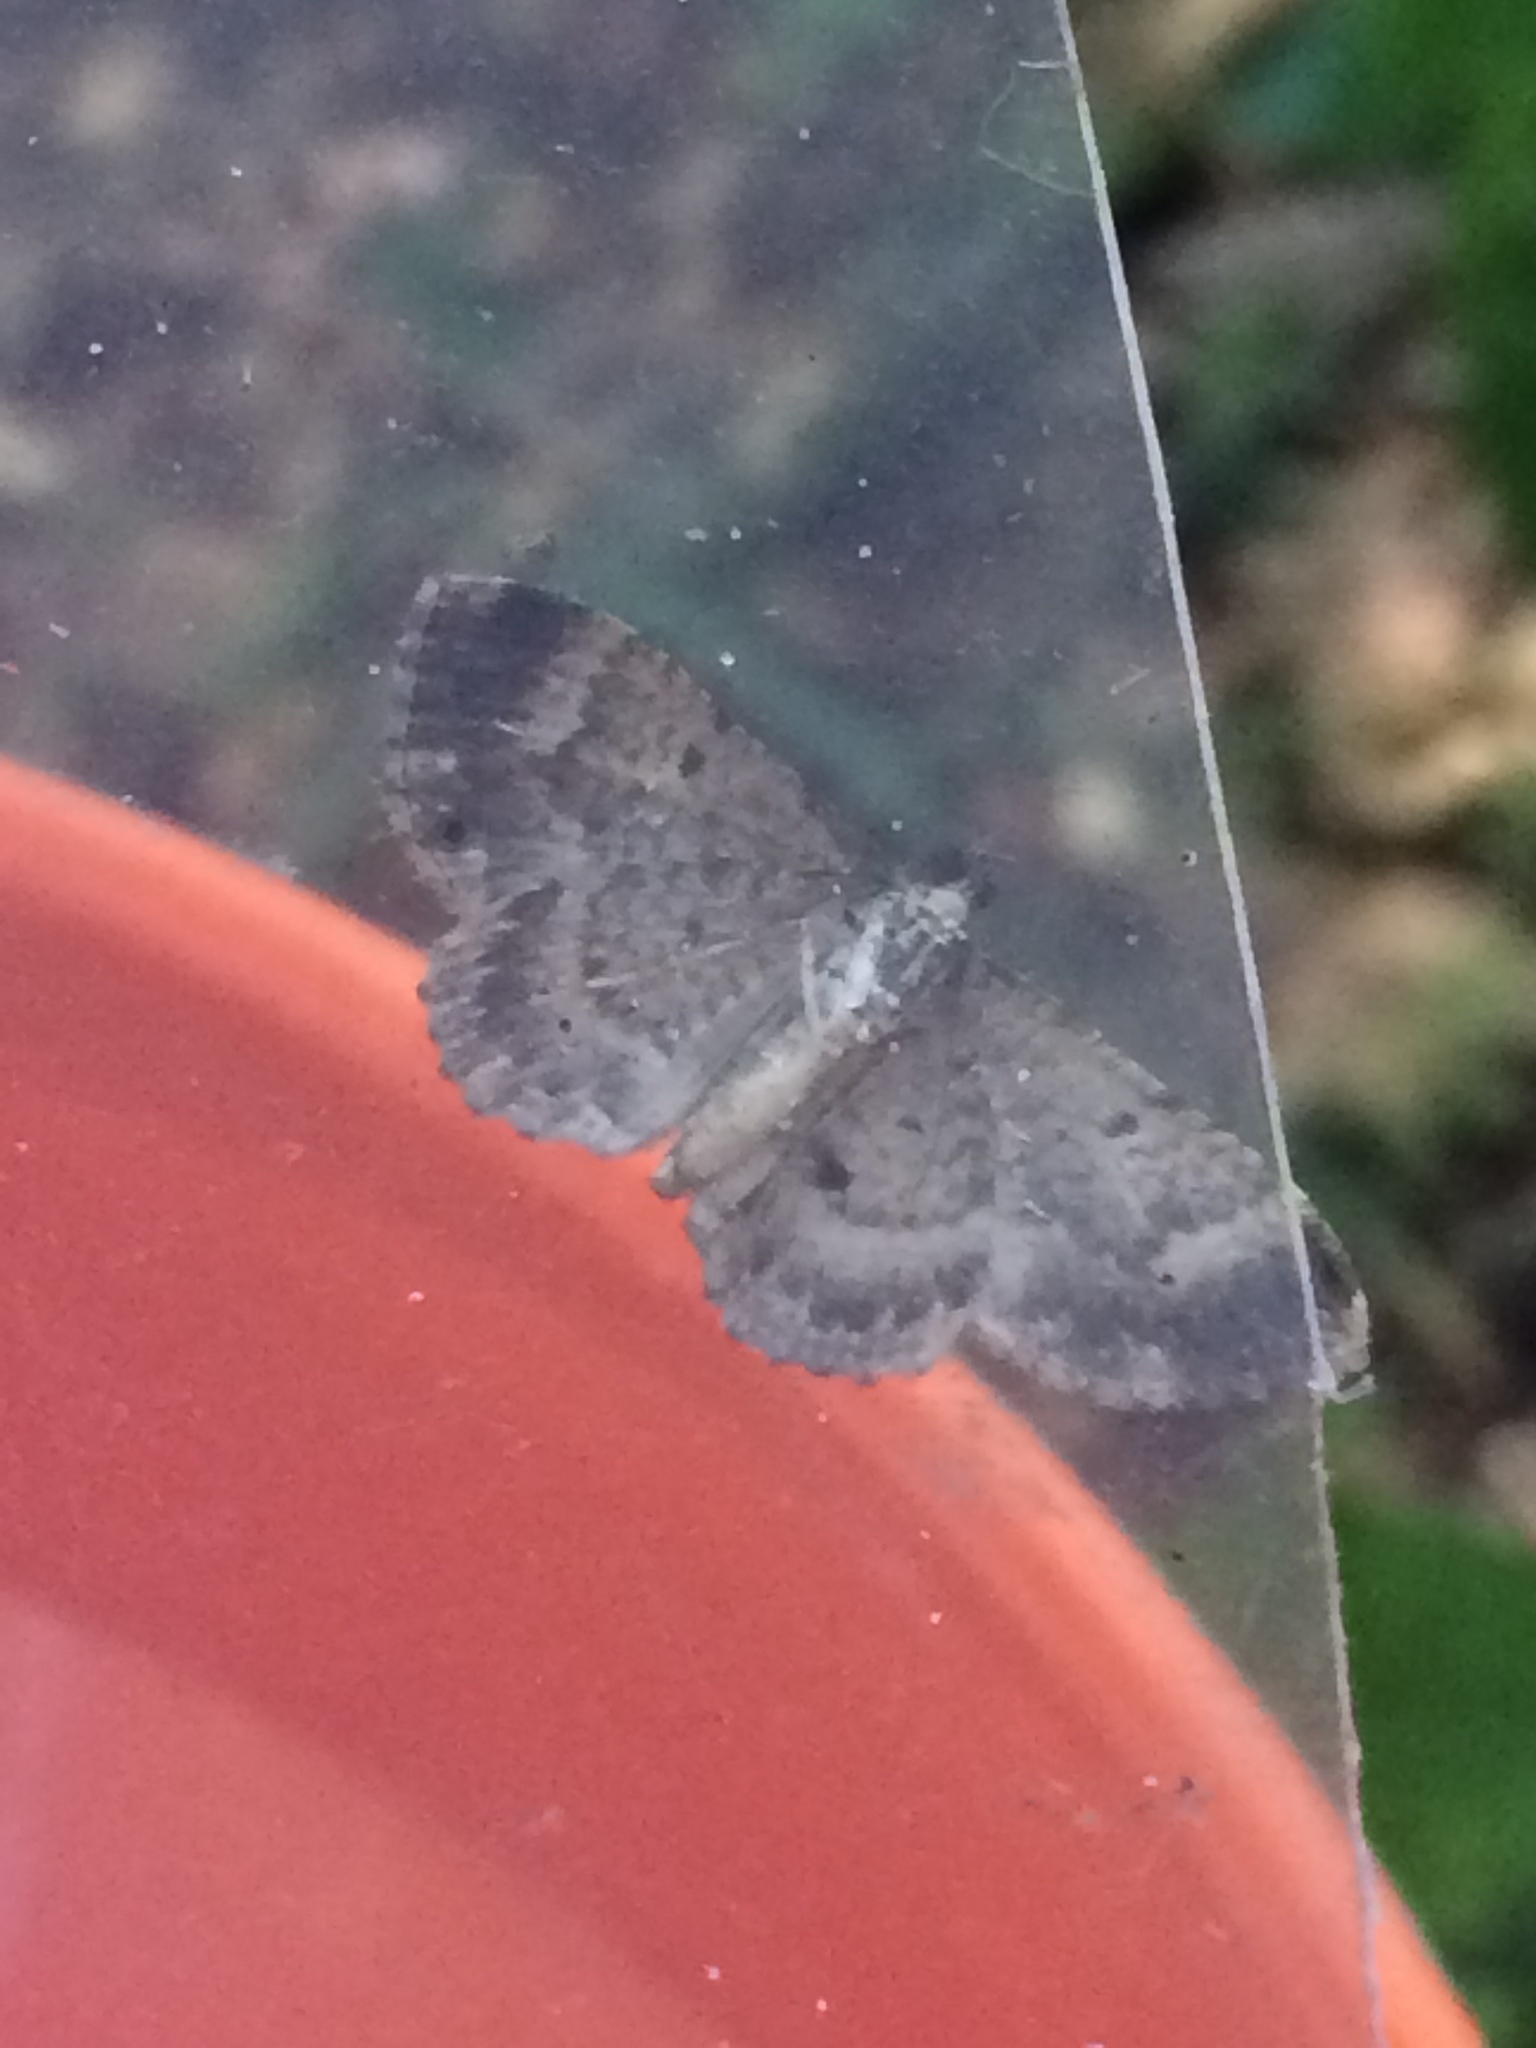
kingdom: Animalia
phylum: Arthropoda
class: Insecta
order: Lepidoptera
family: Geometridae
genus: Disclisioprocta
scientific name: Disclisioprocta stellata
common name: Somber carpet
